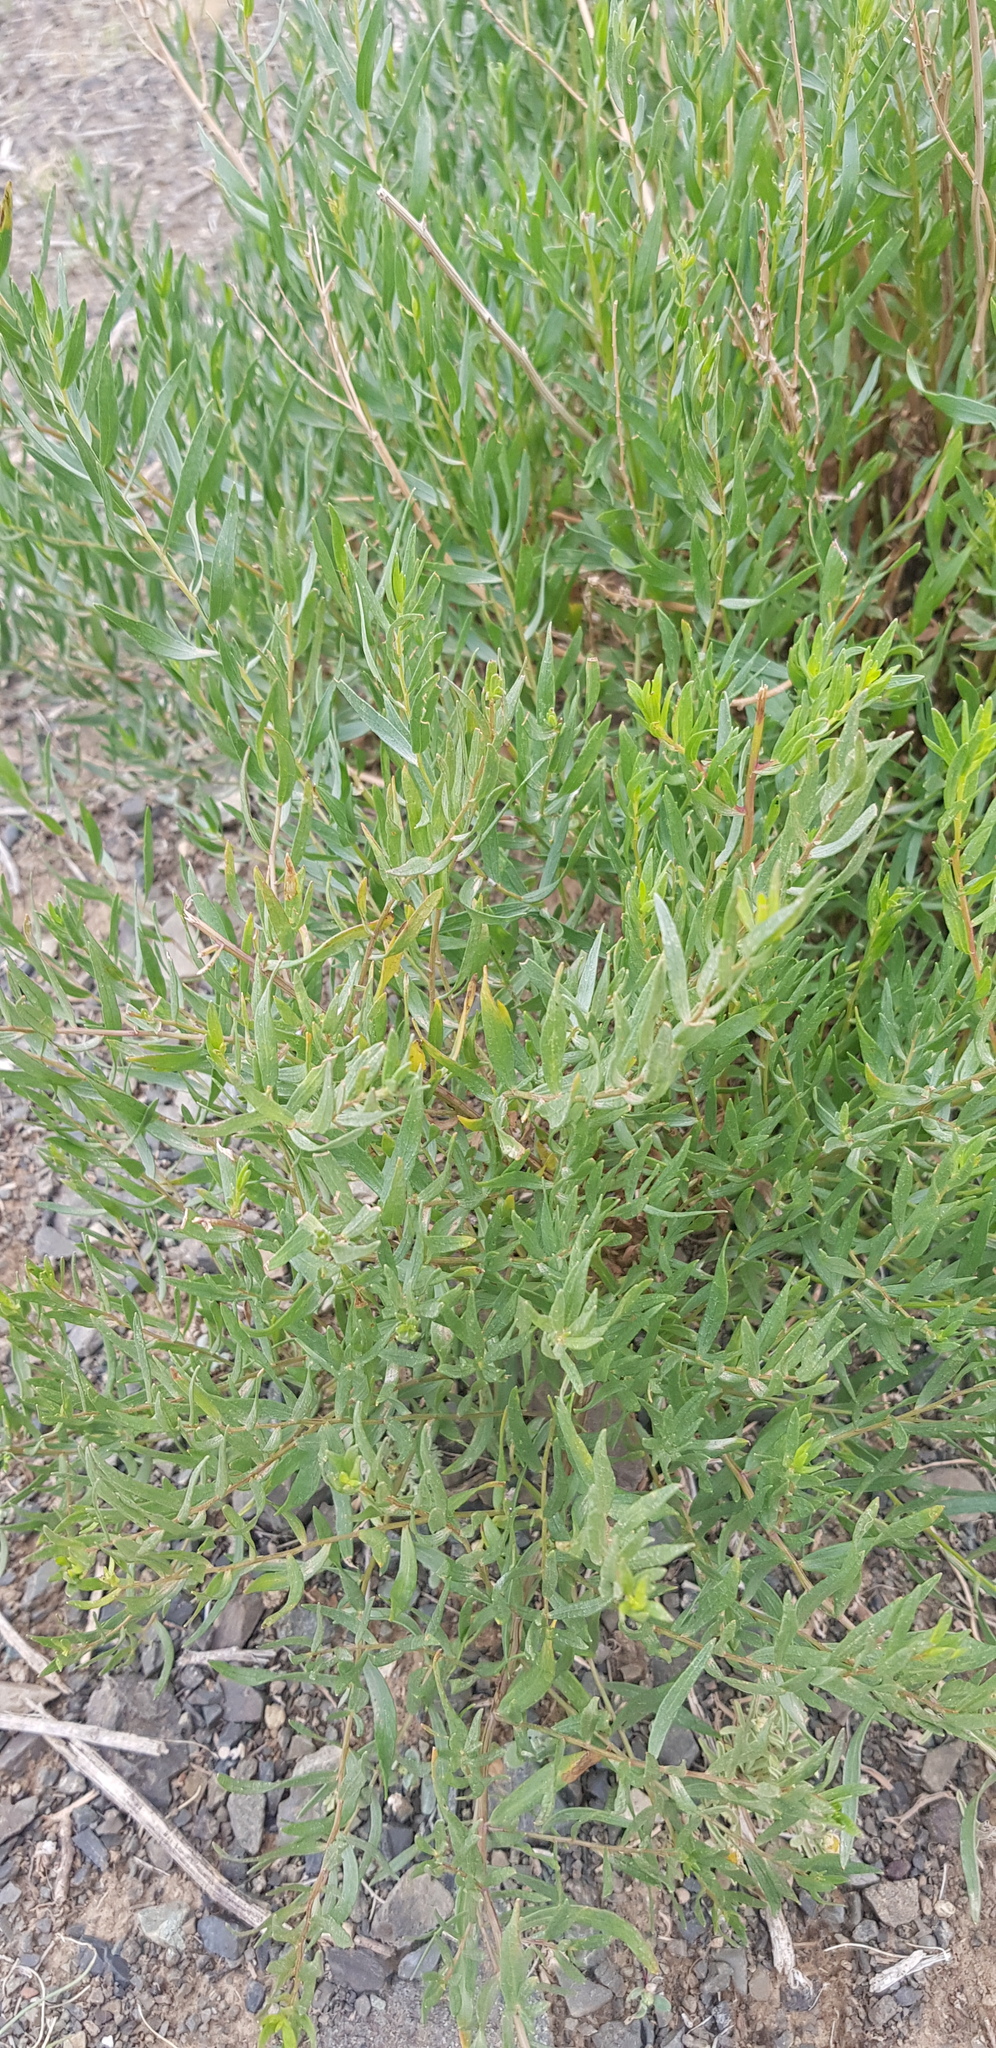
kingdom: Plantae
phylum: Tracheophyta
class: Magnoliopsida
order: Asterales
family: Asteraceae
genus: Artemisia
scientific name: Artemisia dracunculus
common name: Tarragon
